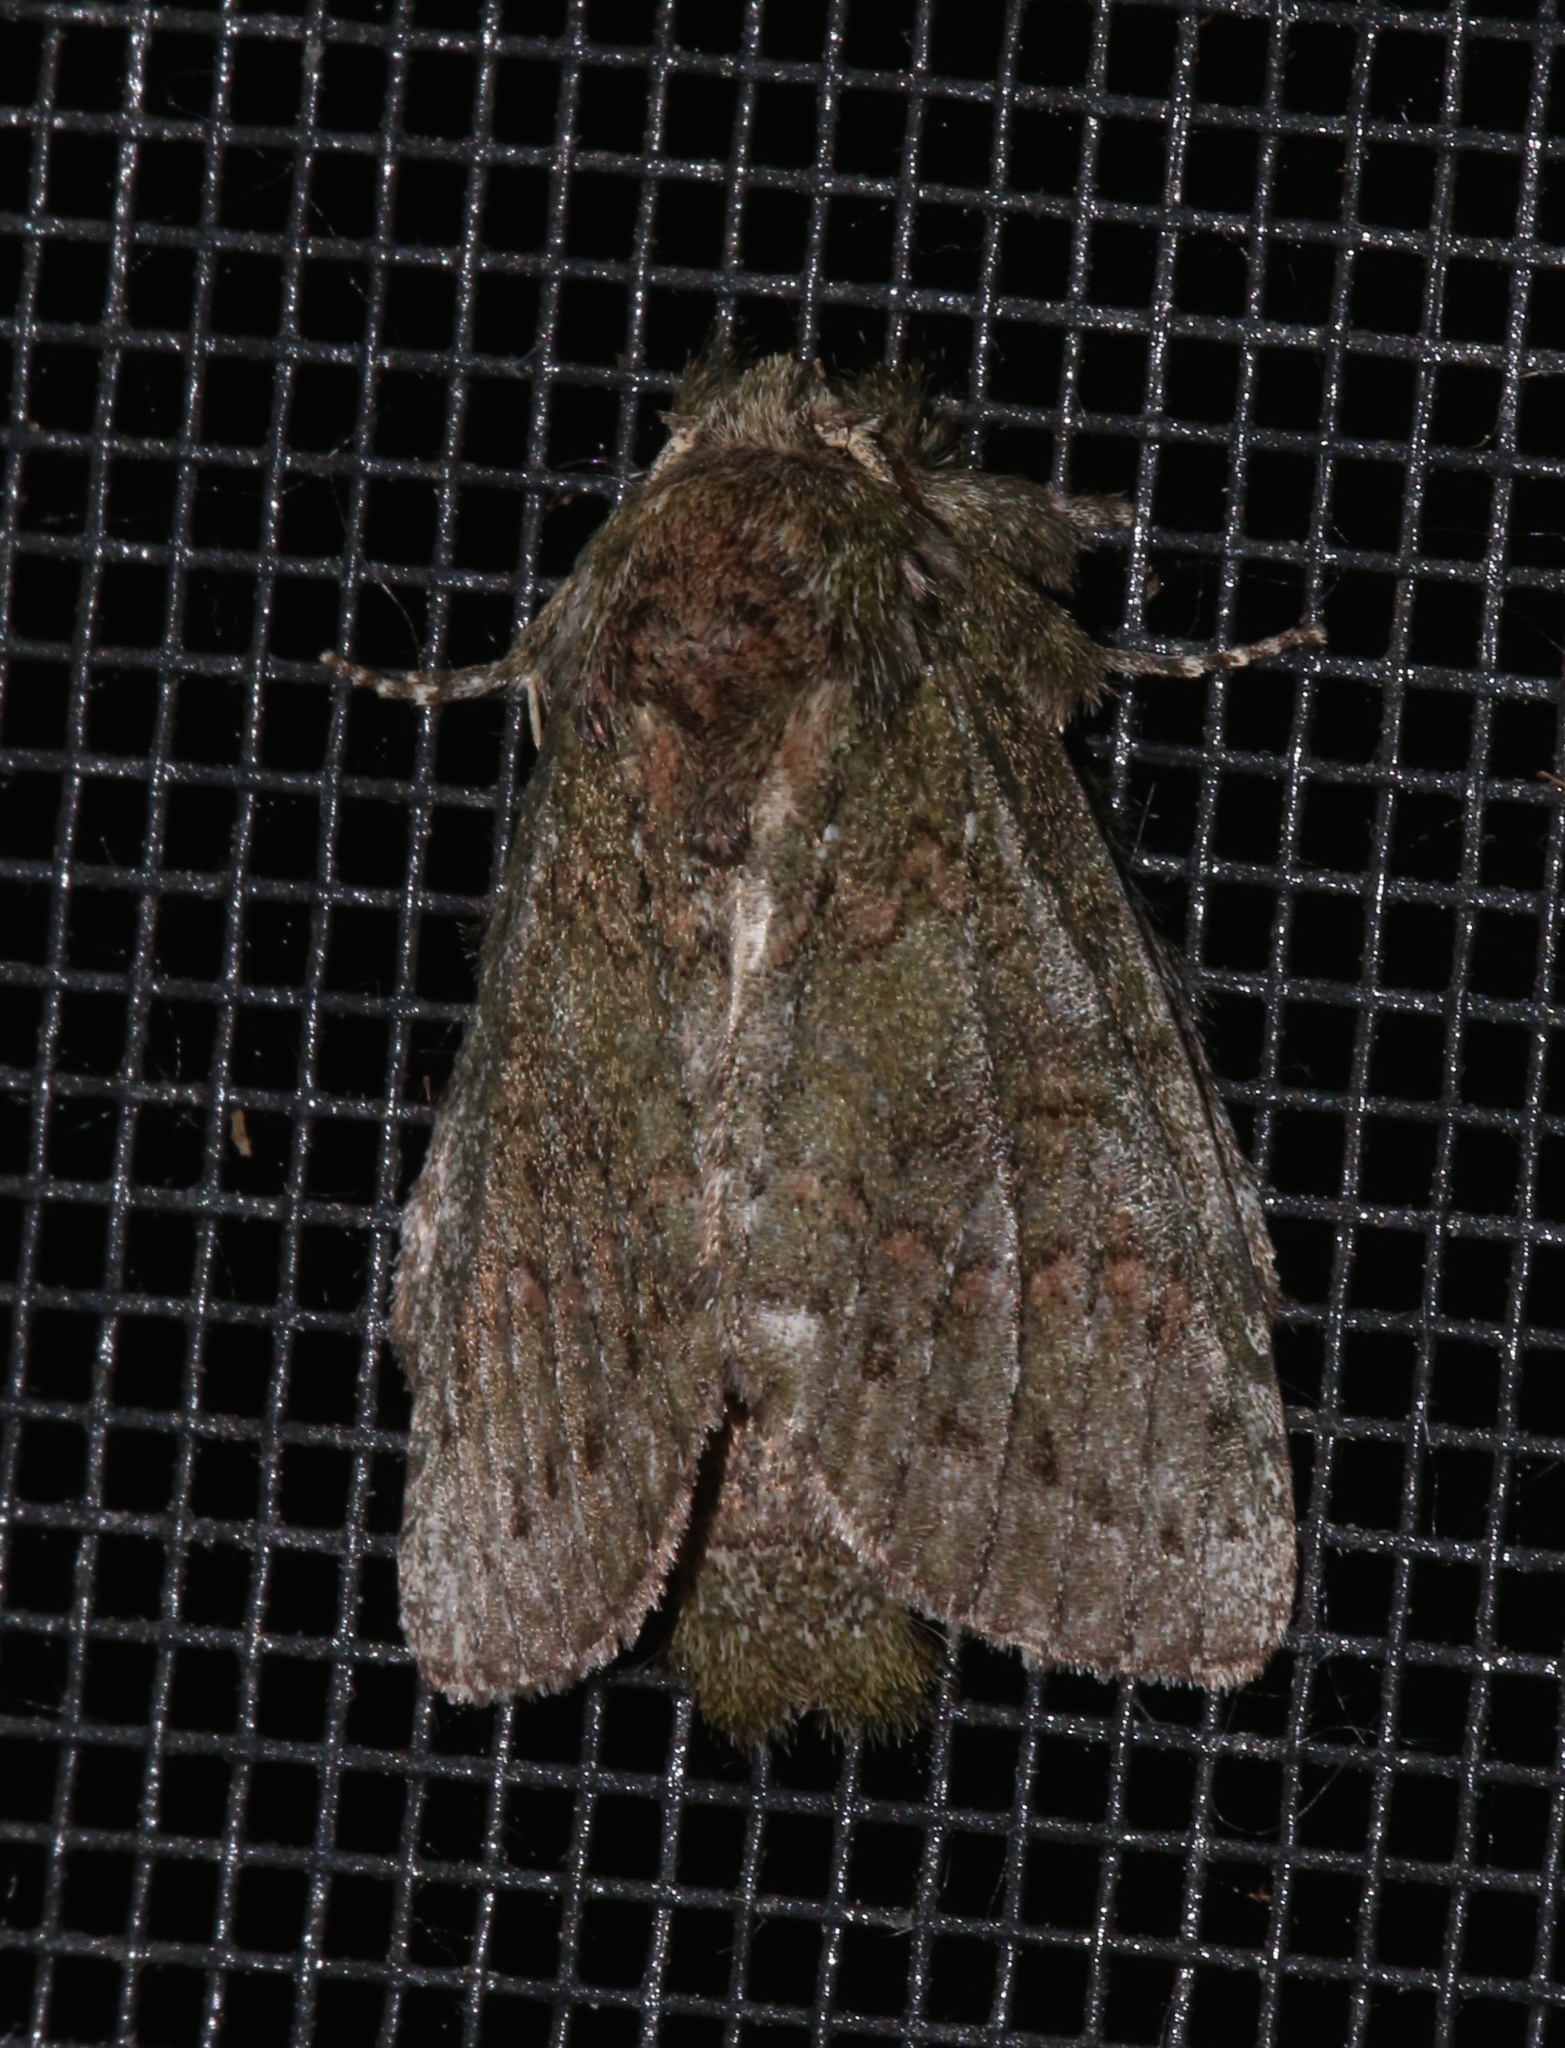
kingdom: Animalia
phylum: Arthropoda
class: Insecta
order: Lepidoptera
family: Notodontidae
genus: Disphragis
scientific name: Disphragis Cecrita biundata
